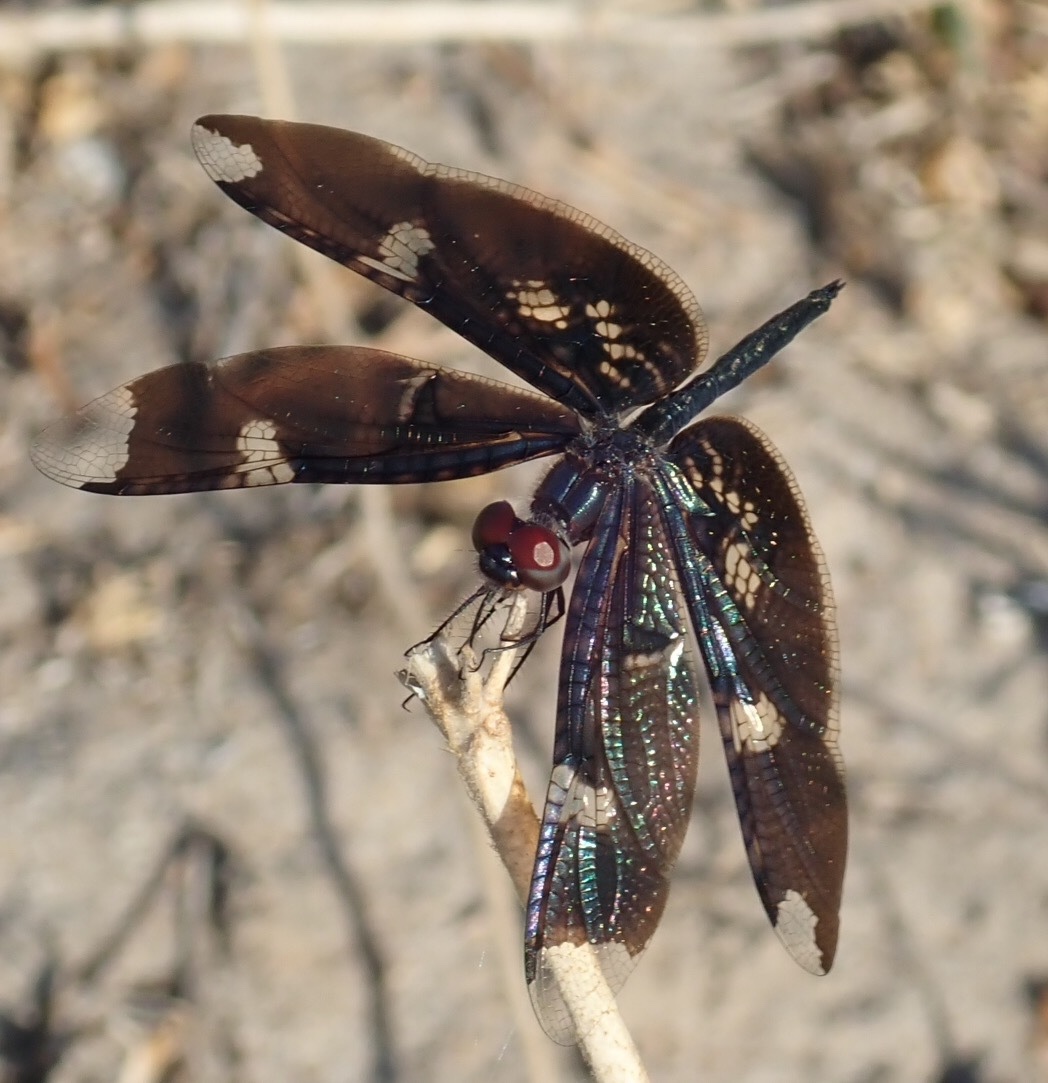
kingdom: Animalia
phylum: Arthropoda
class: Insecta
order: Odonata
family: Libellulidae
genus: Rhyothemis
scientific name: Rhyothemis fenestrina
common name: Skylight flutterer
